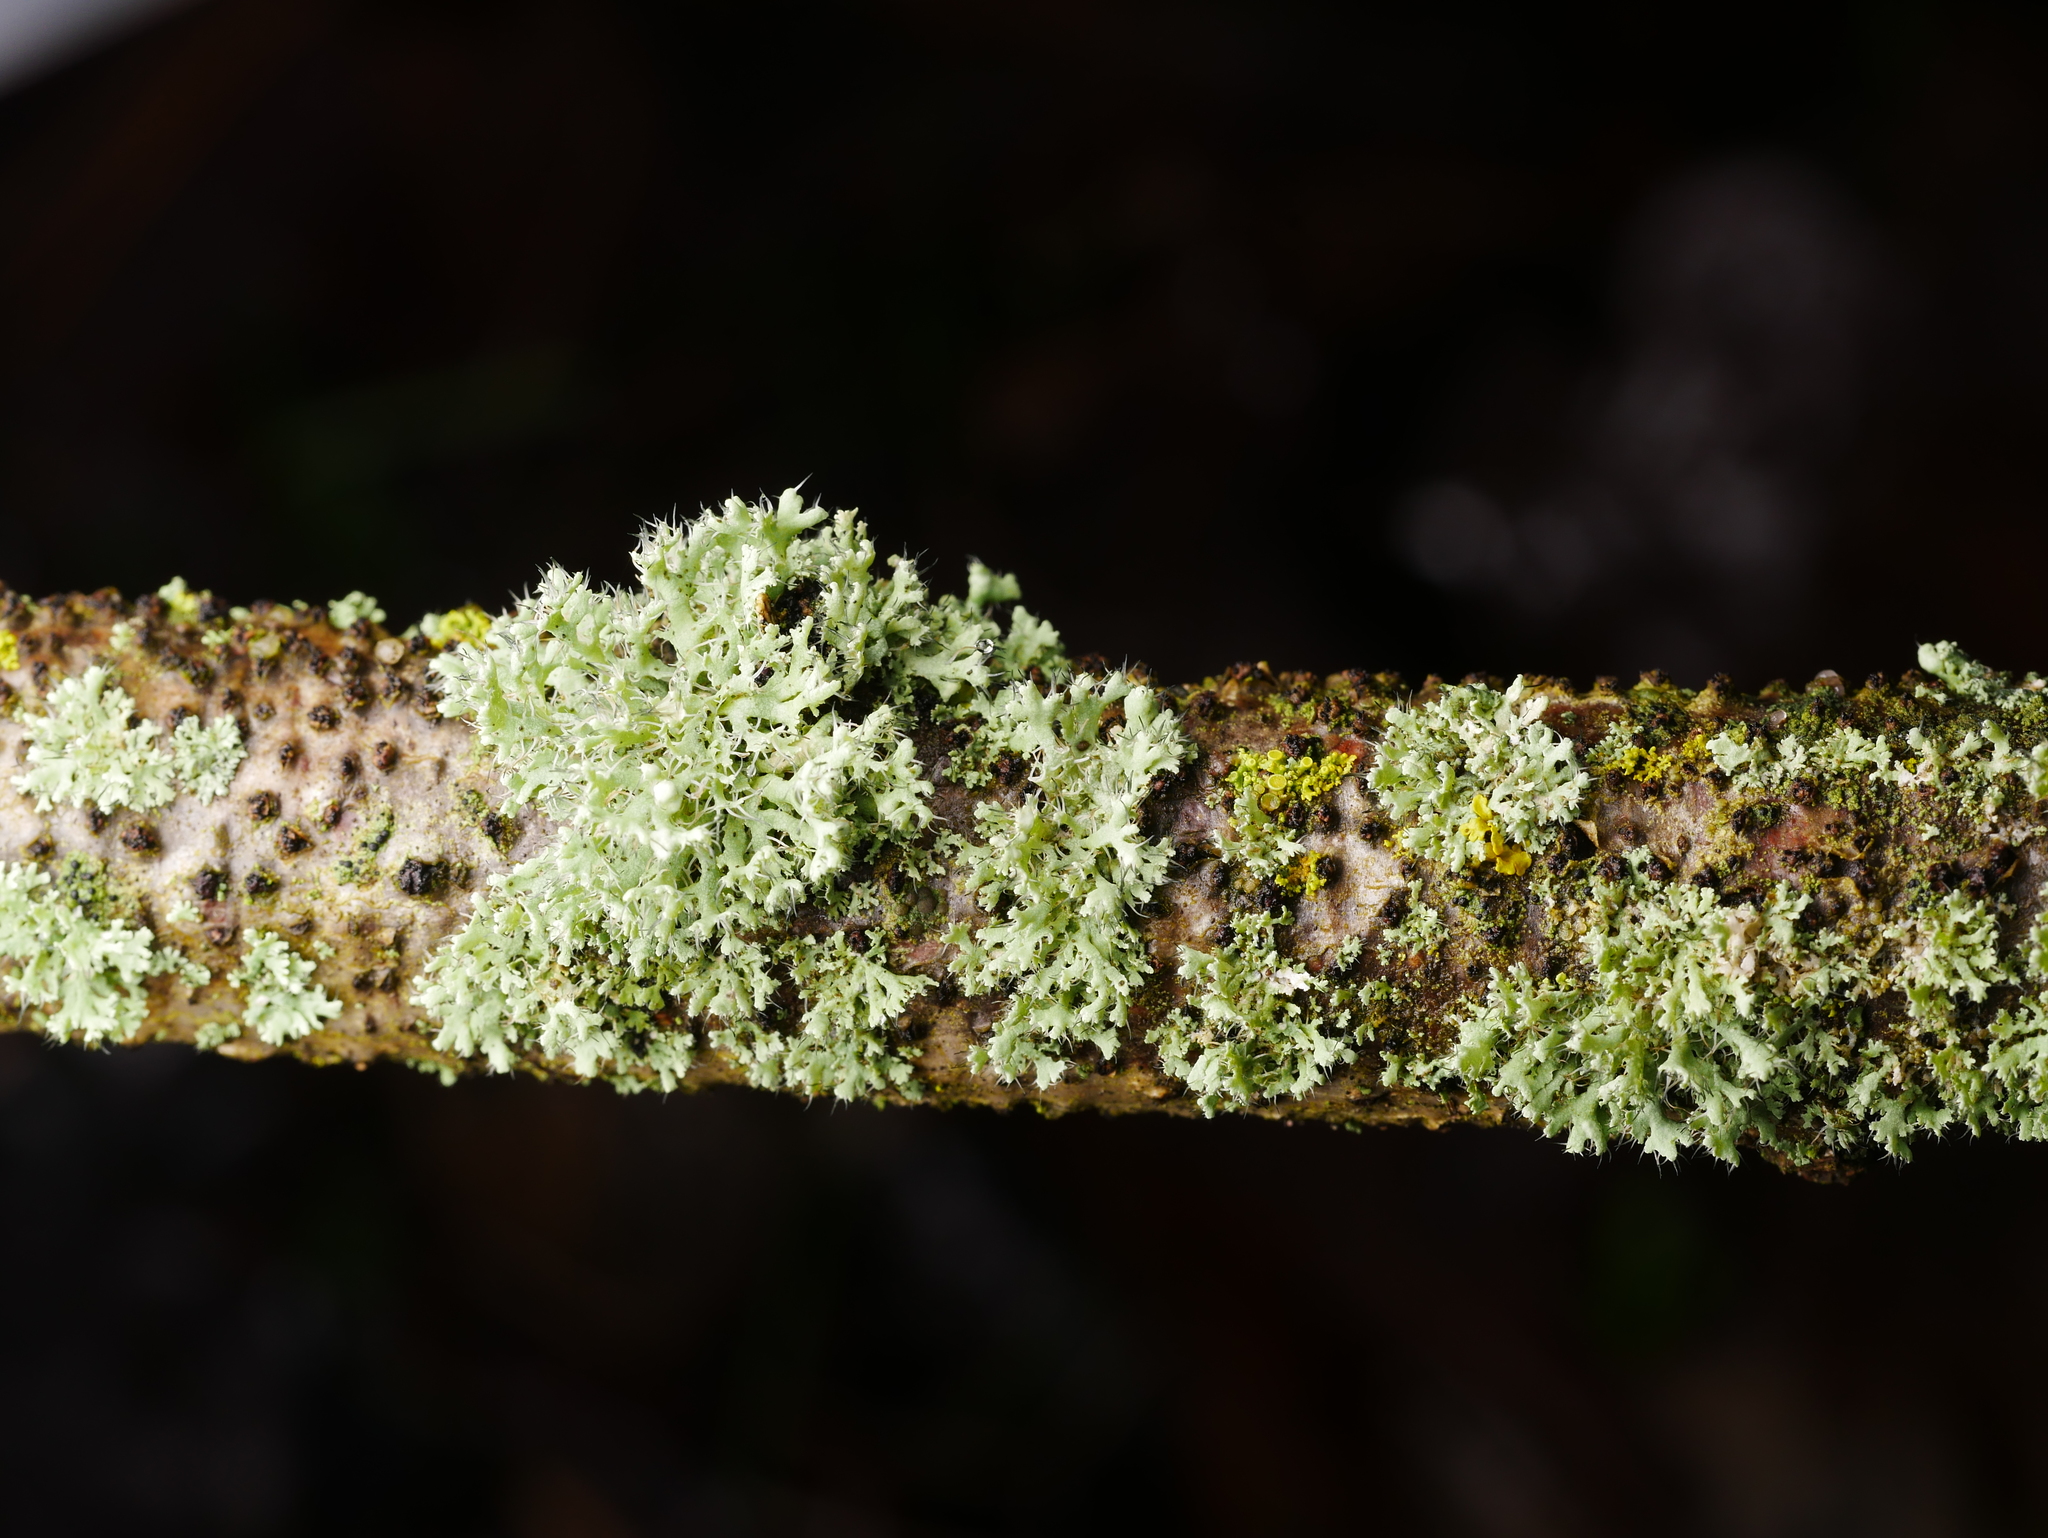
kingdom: Fungi
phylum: Ascomycota
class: Lecanoromycetes
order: Caliciales
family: Physciaceae
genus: Physcia
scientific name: Physcia adscendens
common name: Hooded rosette lichen
